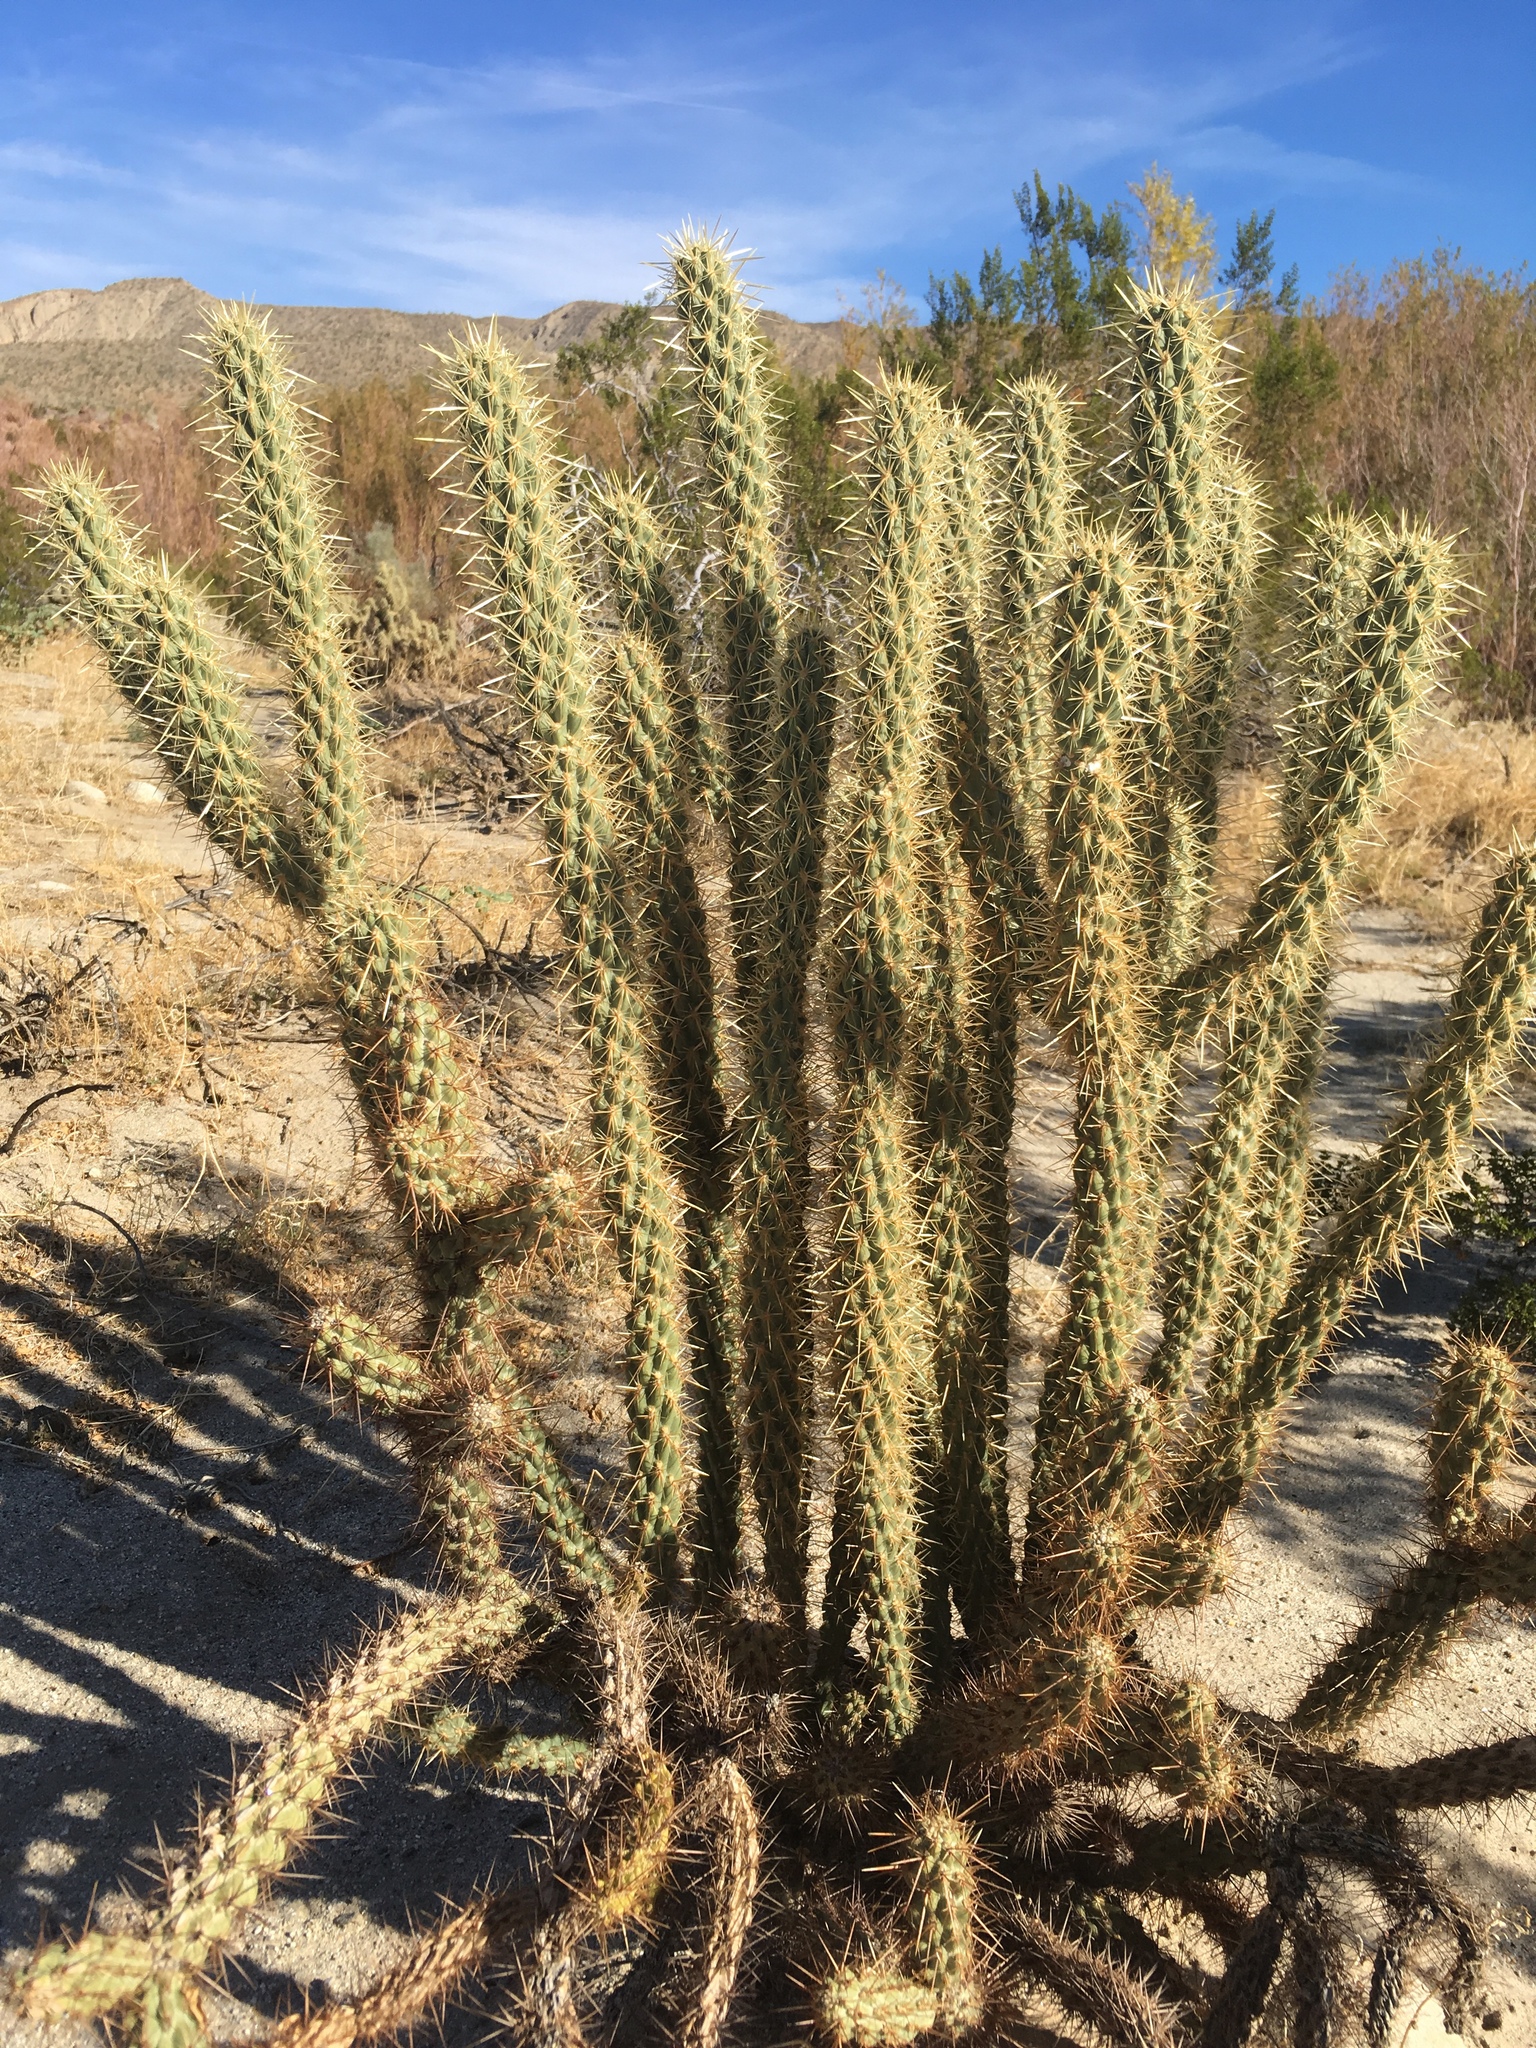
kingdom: Plantae
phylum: Tracheophyta
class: Magnoliopsida
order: Caryophyllales
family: Cactaceae
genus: Cylindropuntia
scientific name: Cylindropuntia ganderi
